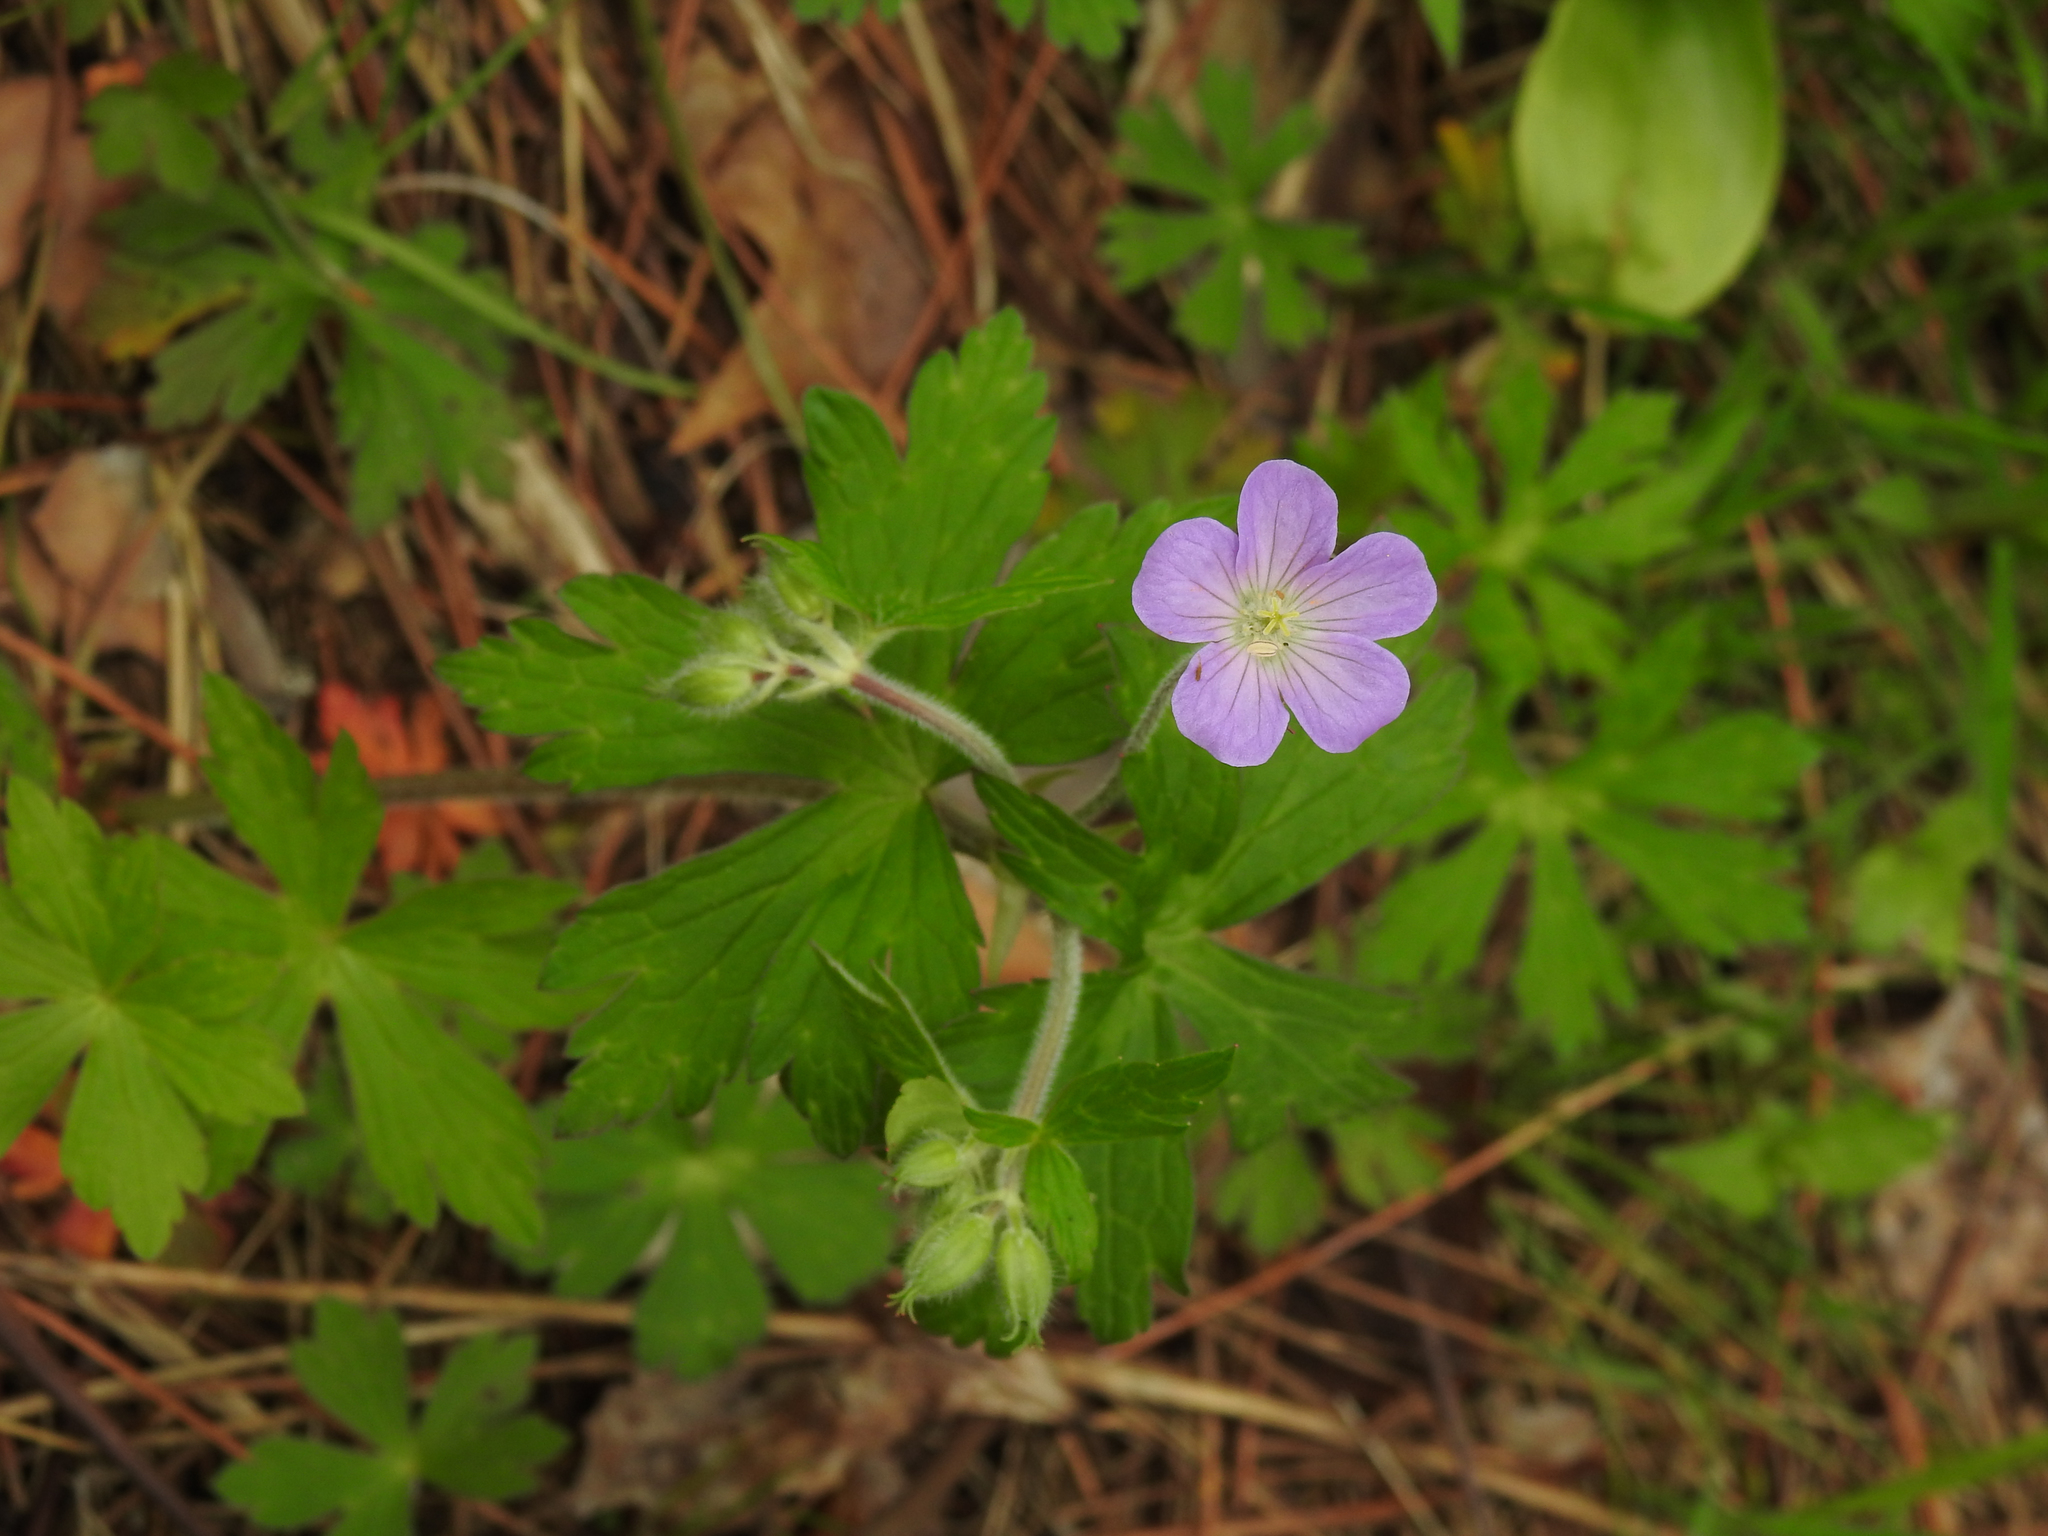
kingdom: Plantae
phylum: Tracheophyta
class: Magnoliopsida
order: Geraniales
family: Geraniaceae
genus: Geranium
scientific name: Geranium maculatum
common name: Spotted geranium
